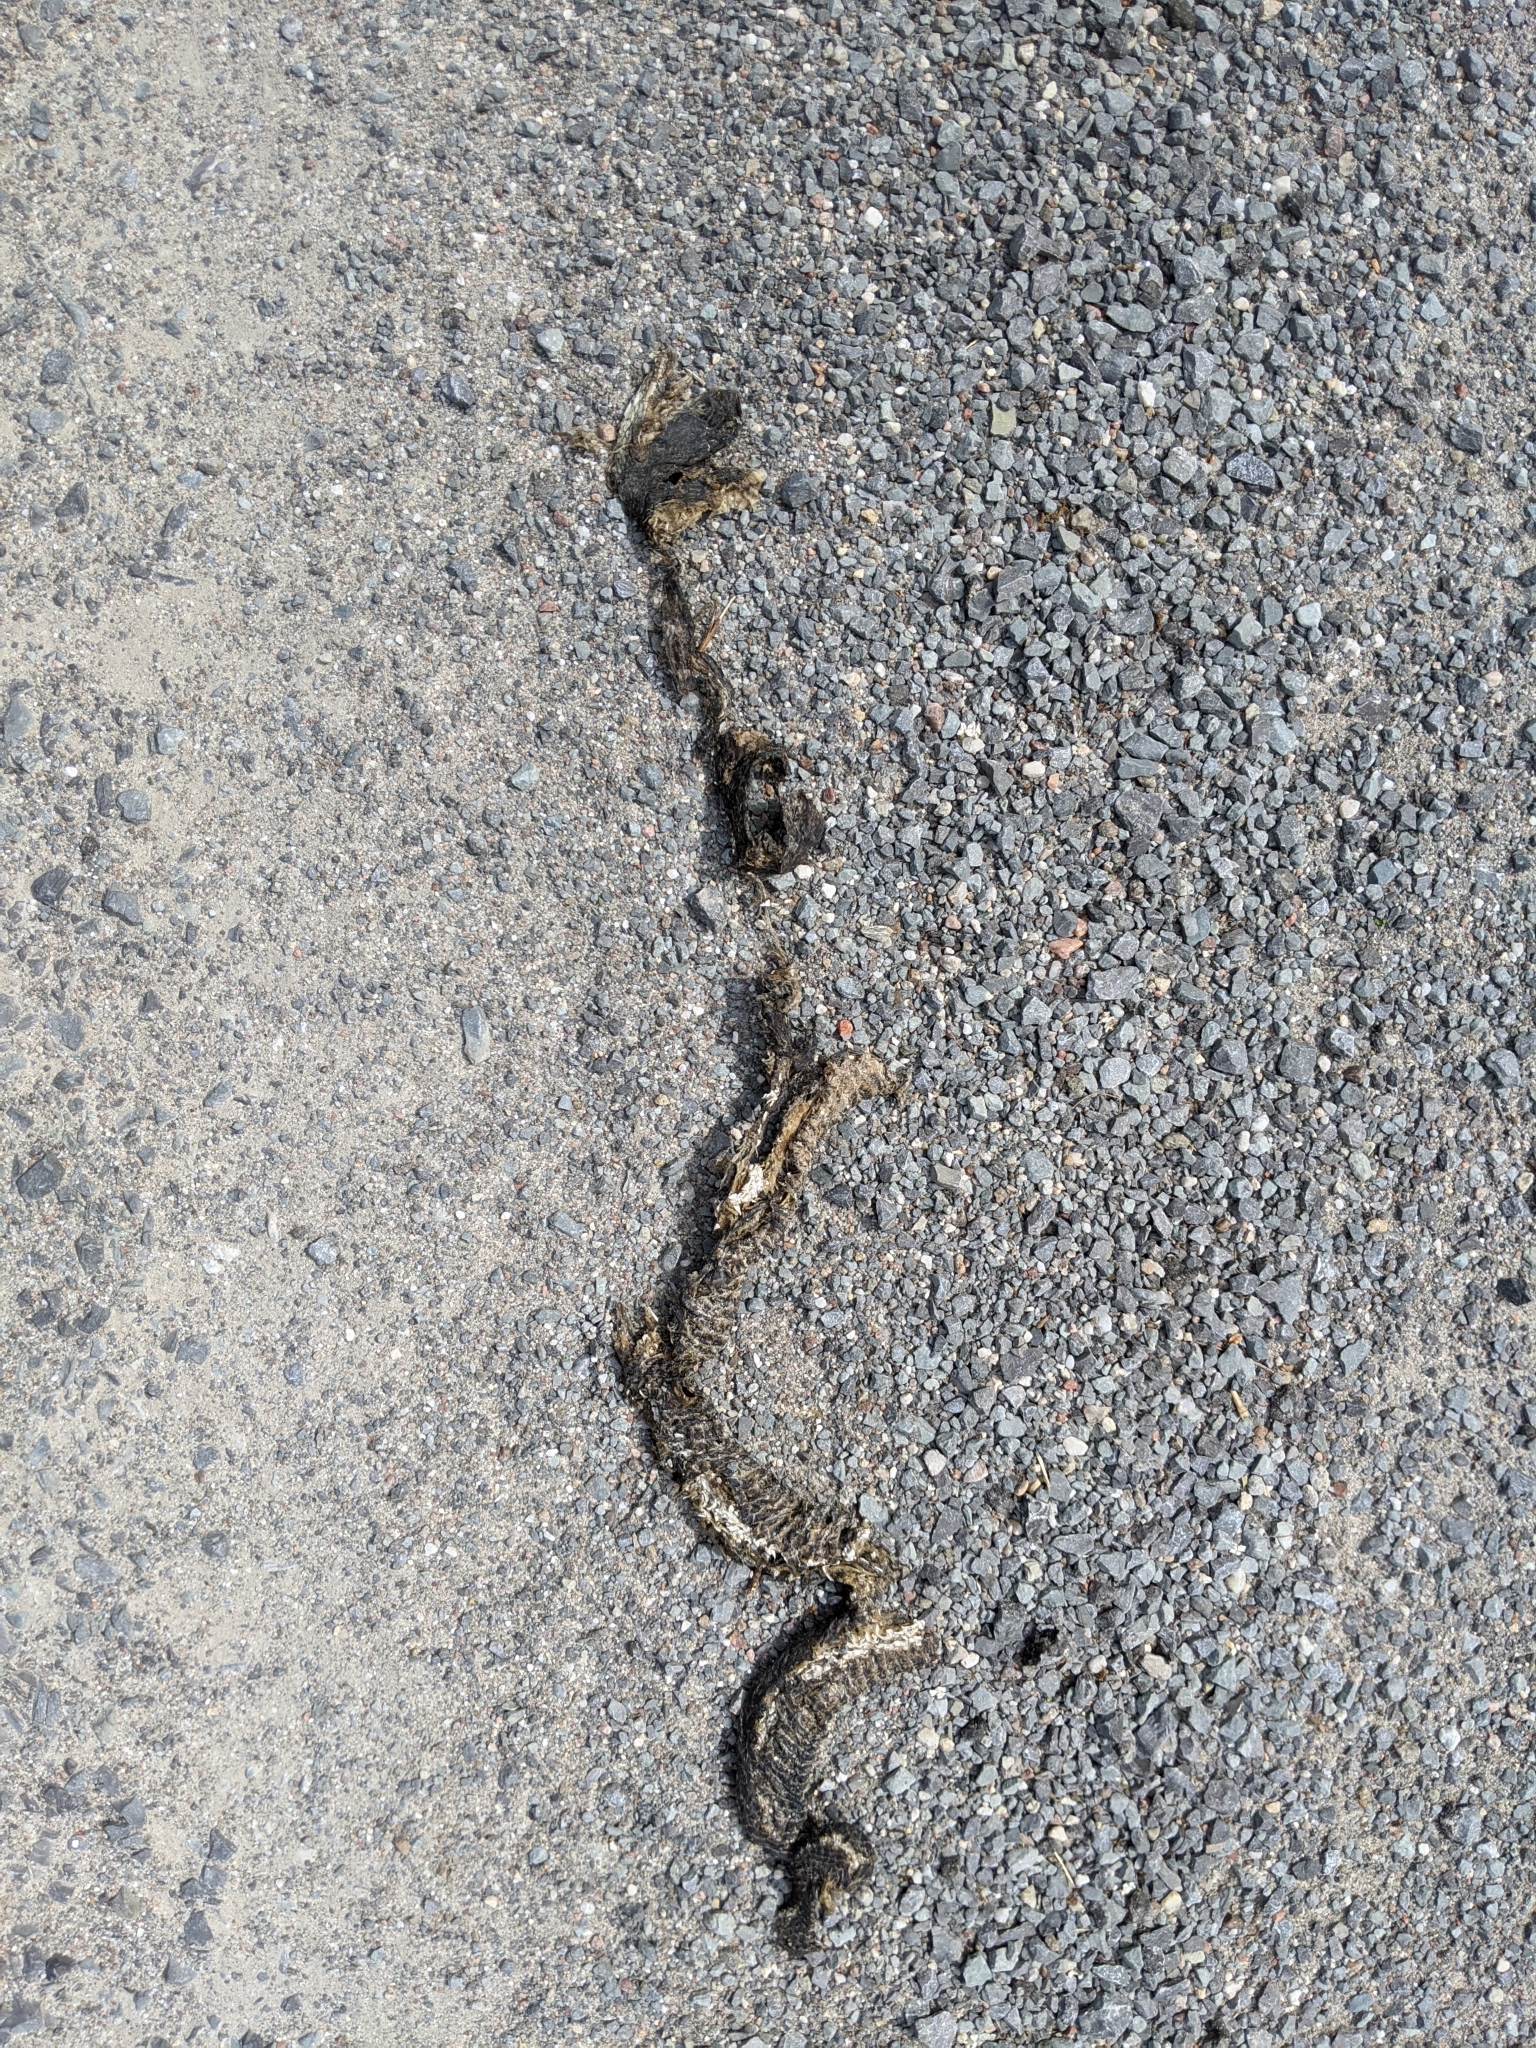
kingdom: Animalia
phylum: Chordata
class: Squamata
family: Colubridae
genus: Pantherophis
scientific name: Pantherophis spiloides
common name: Gray rat snake
